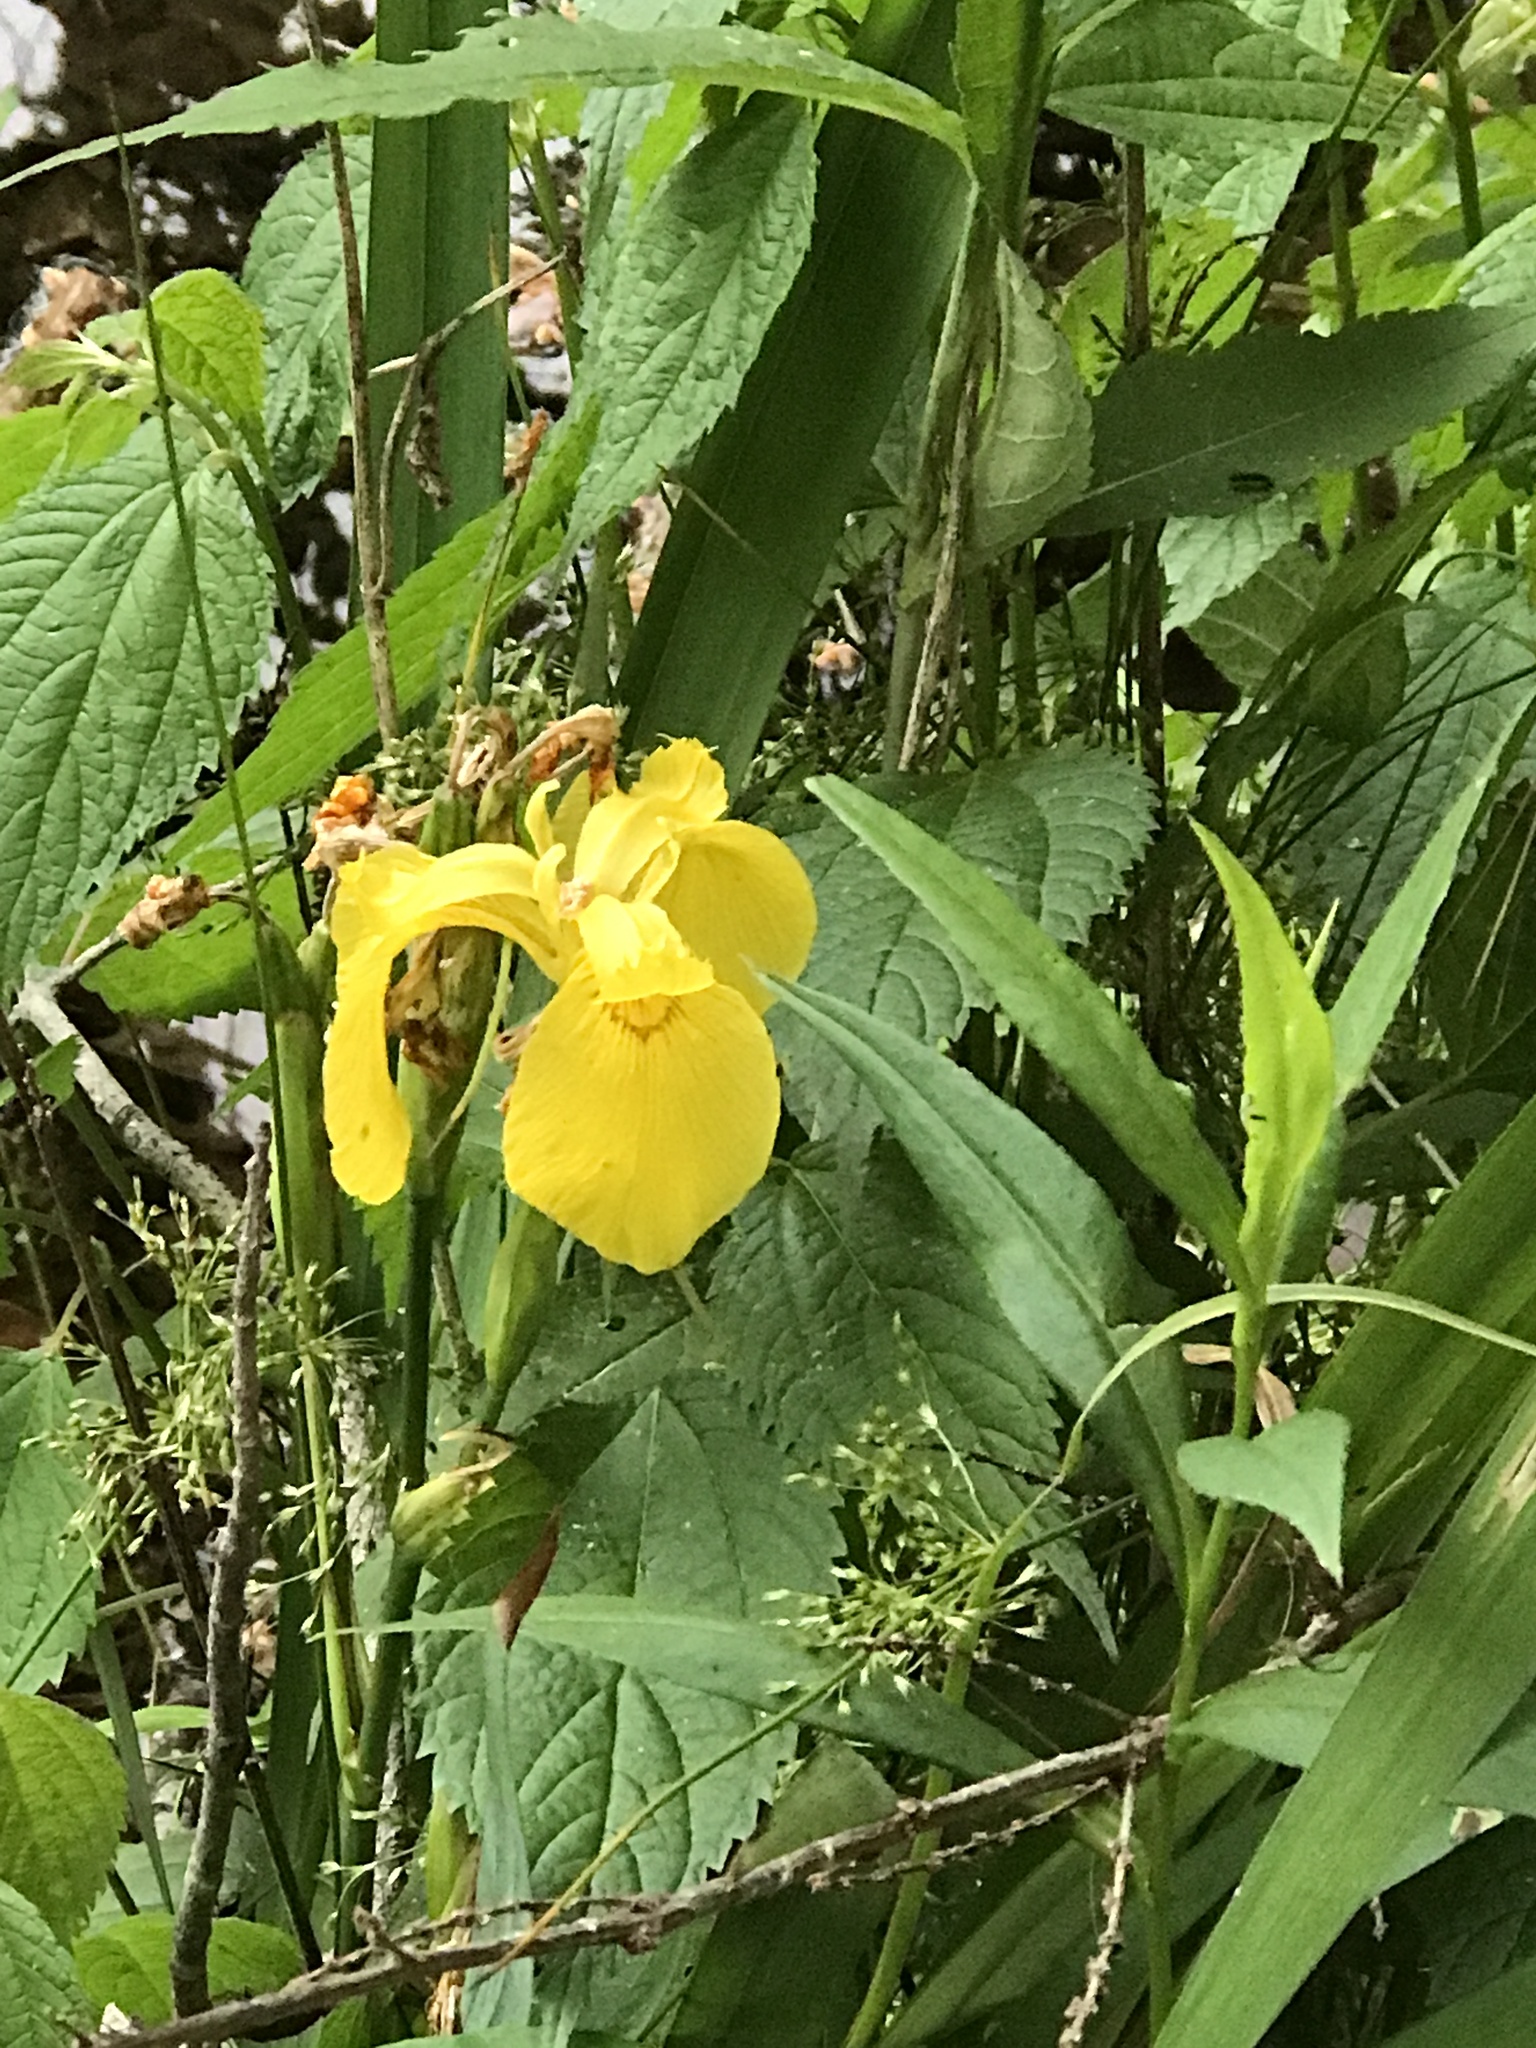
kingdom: Plantae
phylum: Tracheophyta
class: Liliopsida
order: Asparagales
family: Iridaceae
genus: Iris
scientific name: Iris pseudacorus
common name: Yellow flag
